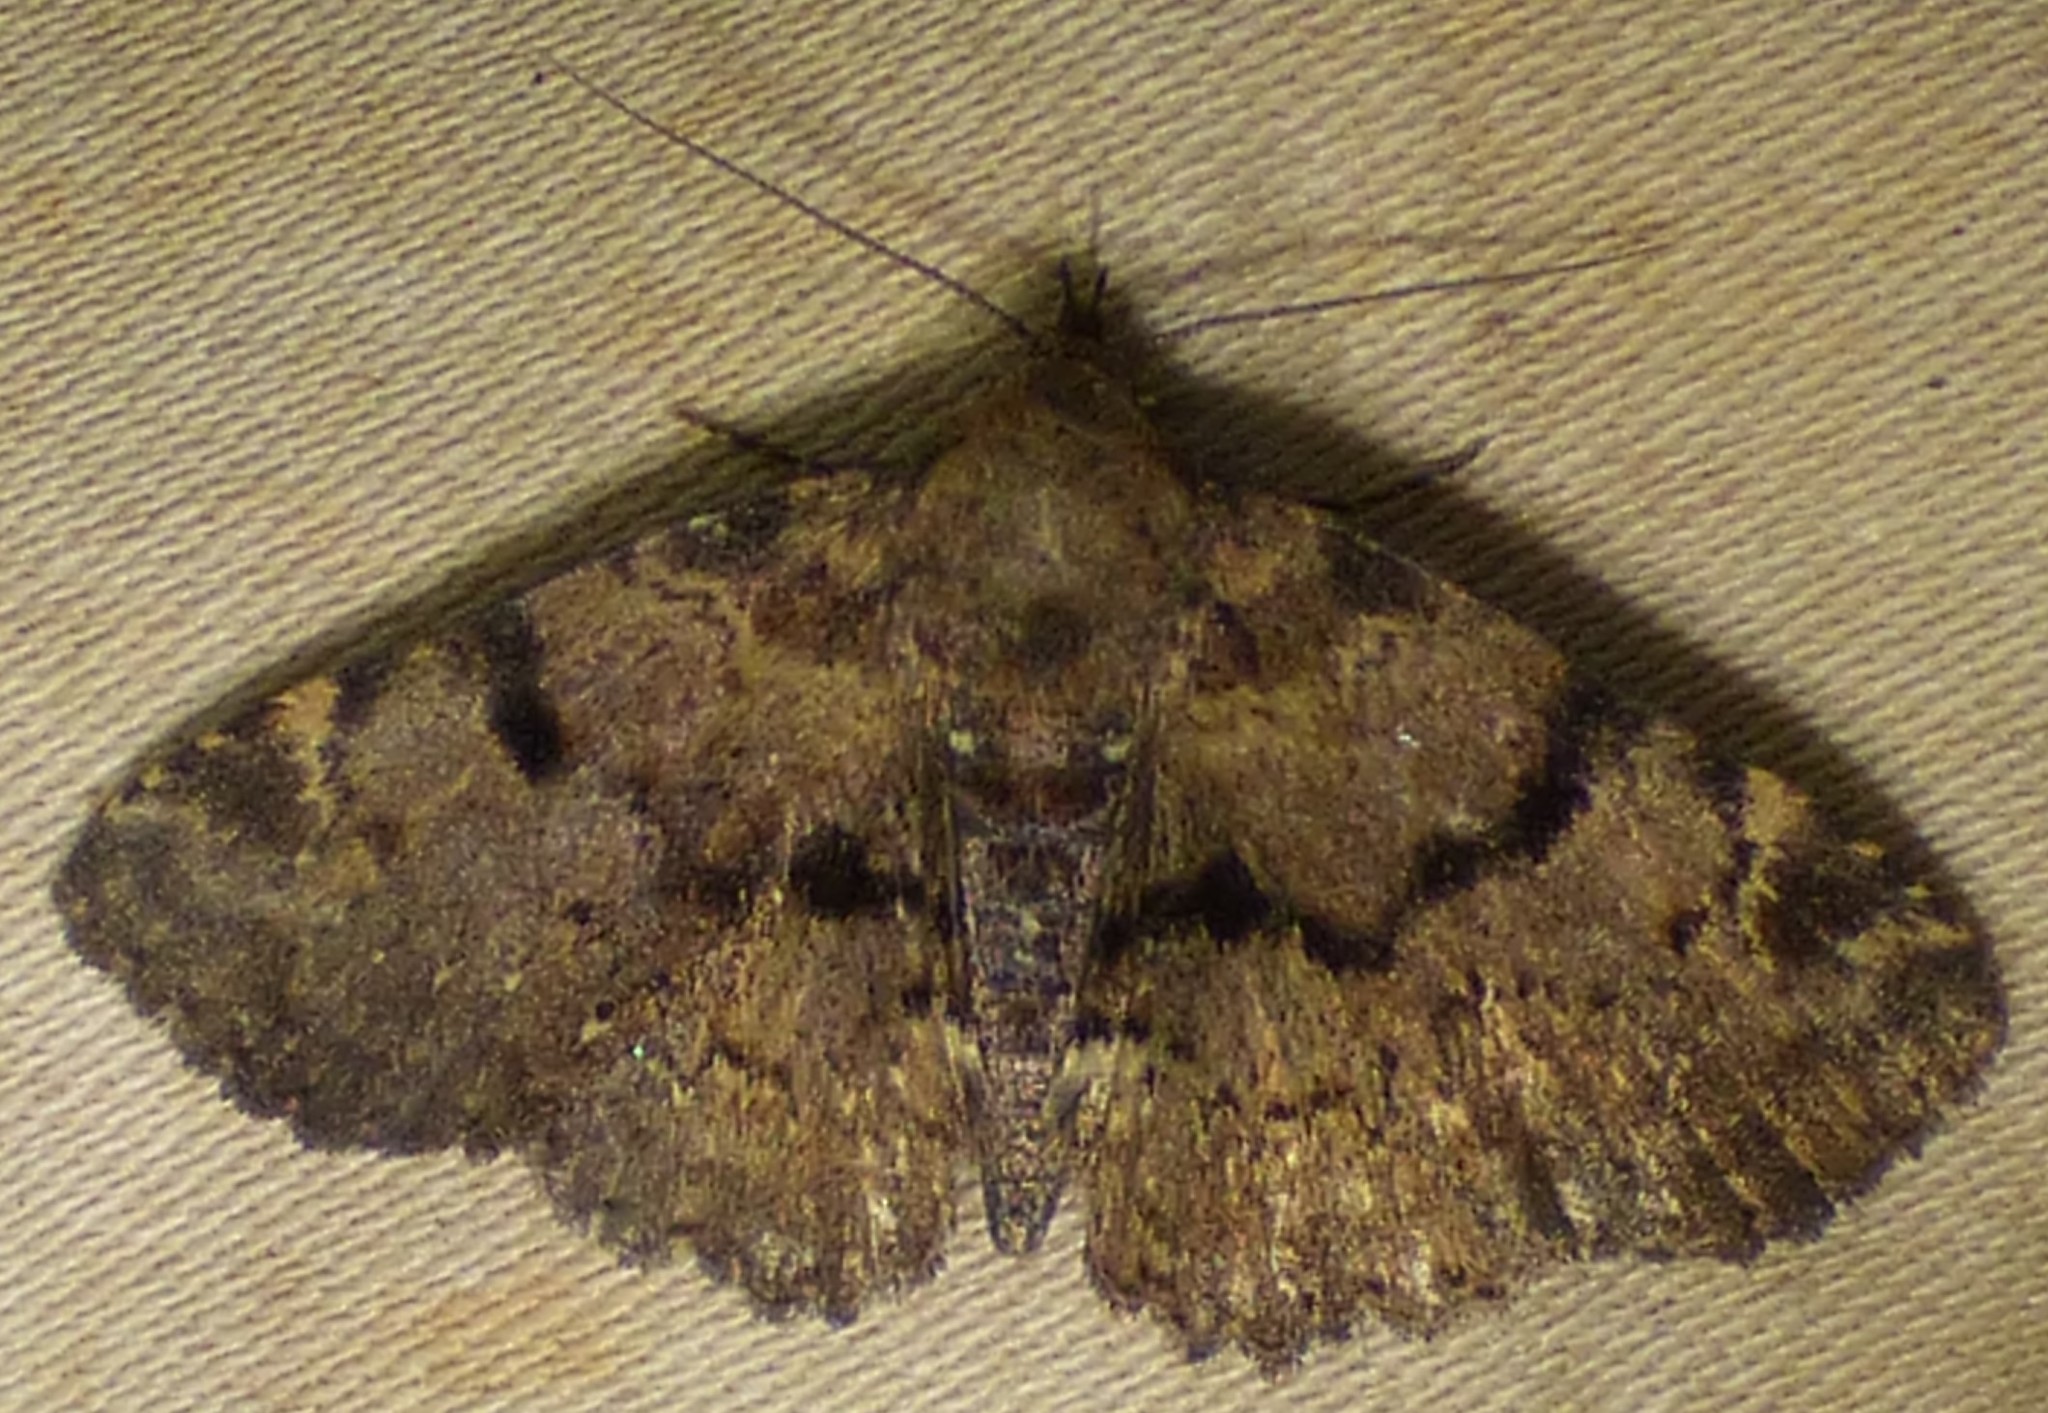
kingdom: Animalia
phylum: Arthropoda
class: Insecta
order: Lepidoptera
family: Erebidae
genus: Metalectra
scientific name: Metalectra quadrisignata
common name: Four-spotted fungus moth
